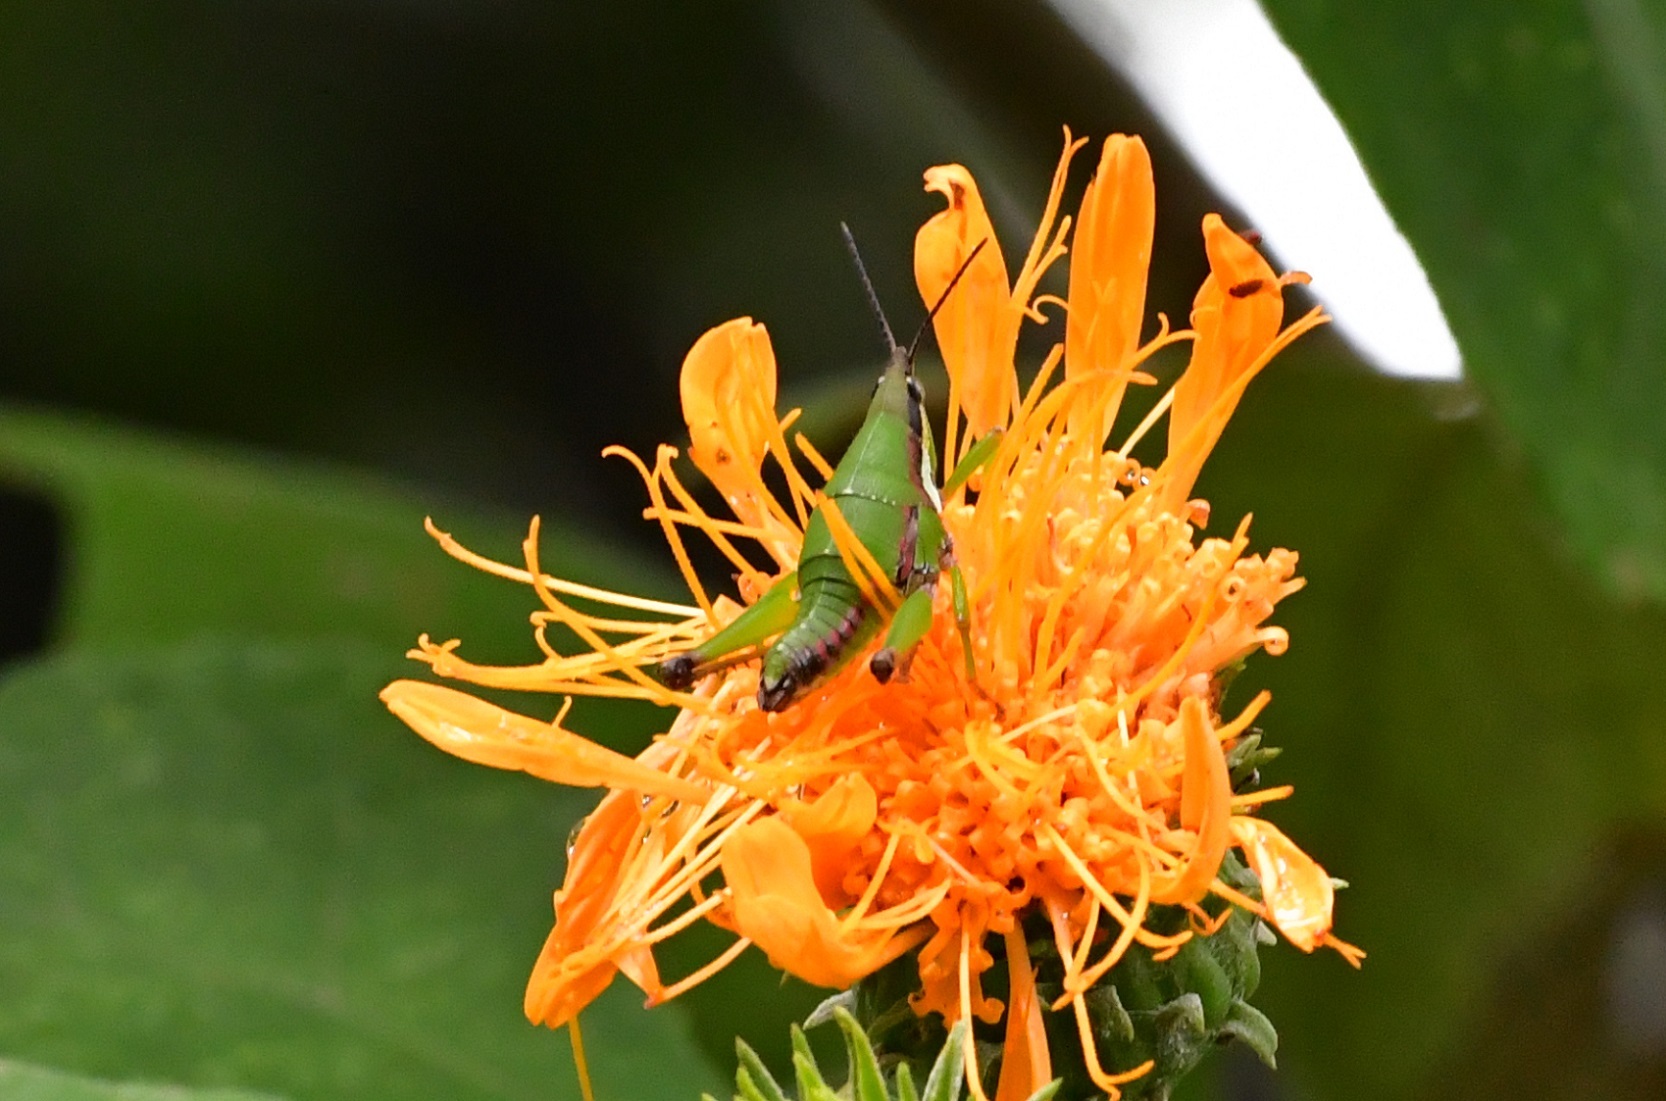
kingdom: Animalia
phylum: Arthropoda
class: Insecta
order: Orthoptera
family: Pyrgomorphidae
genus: Sphenarium
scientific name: Sphenarium histrio
